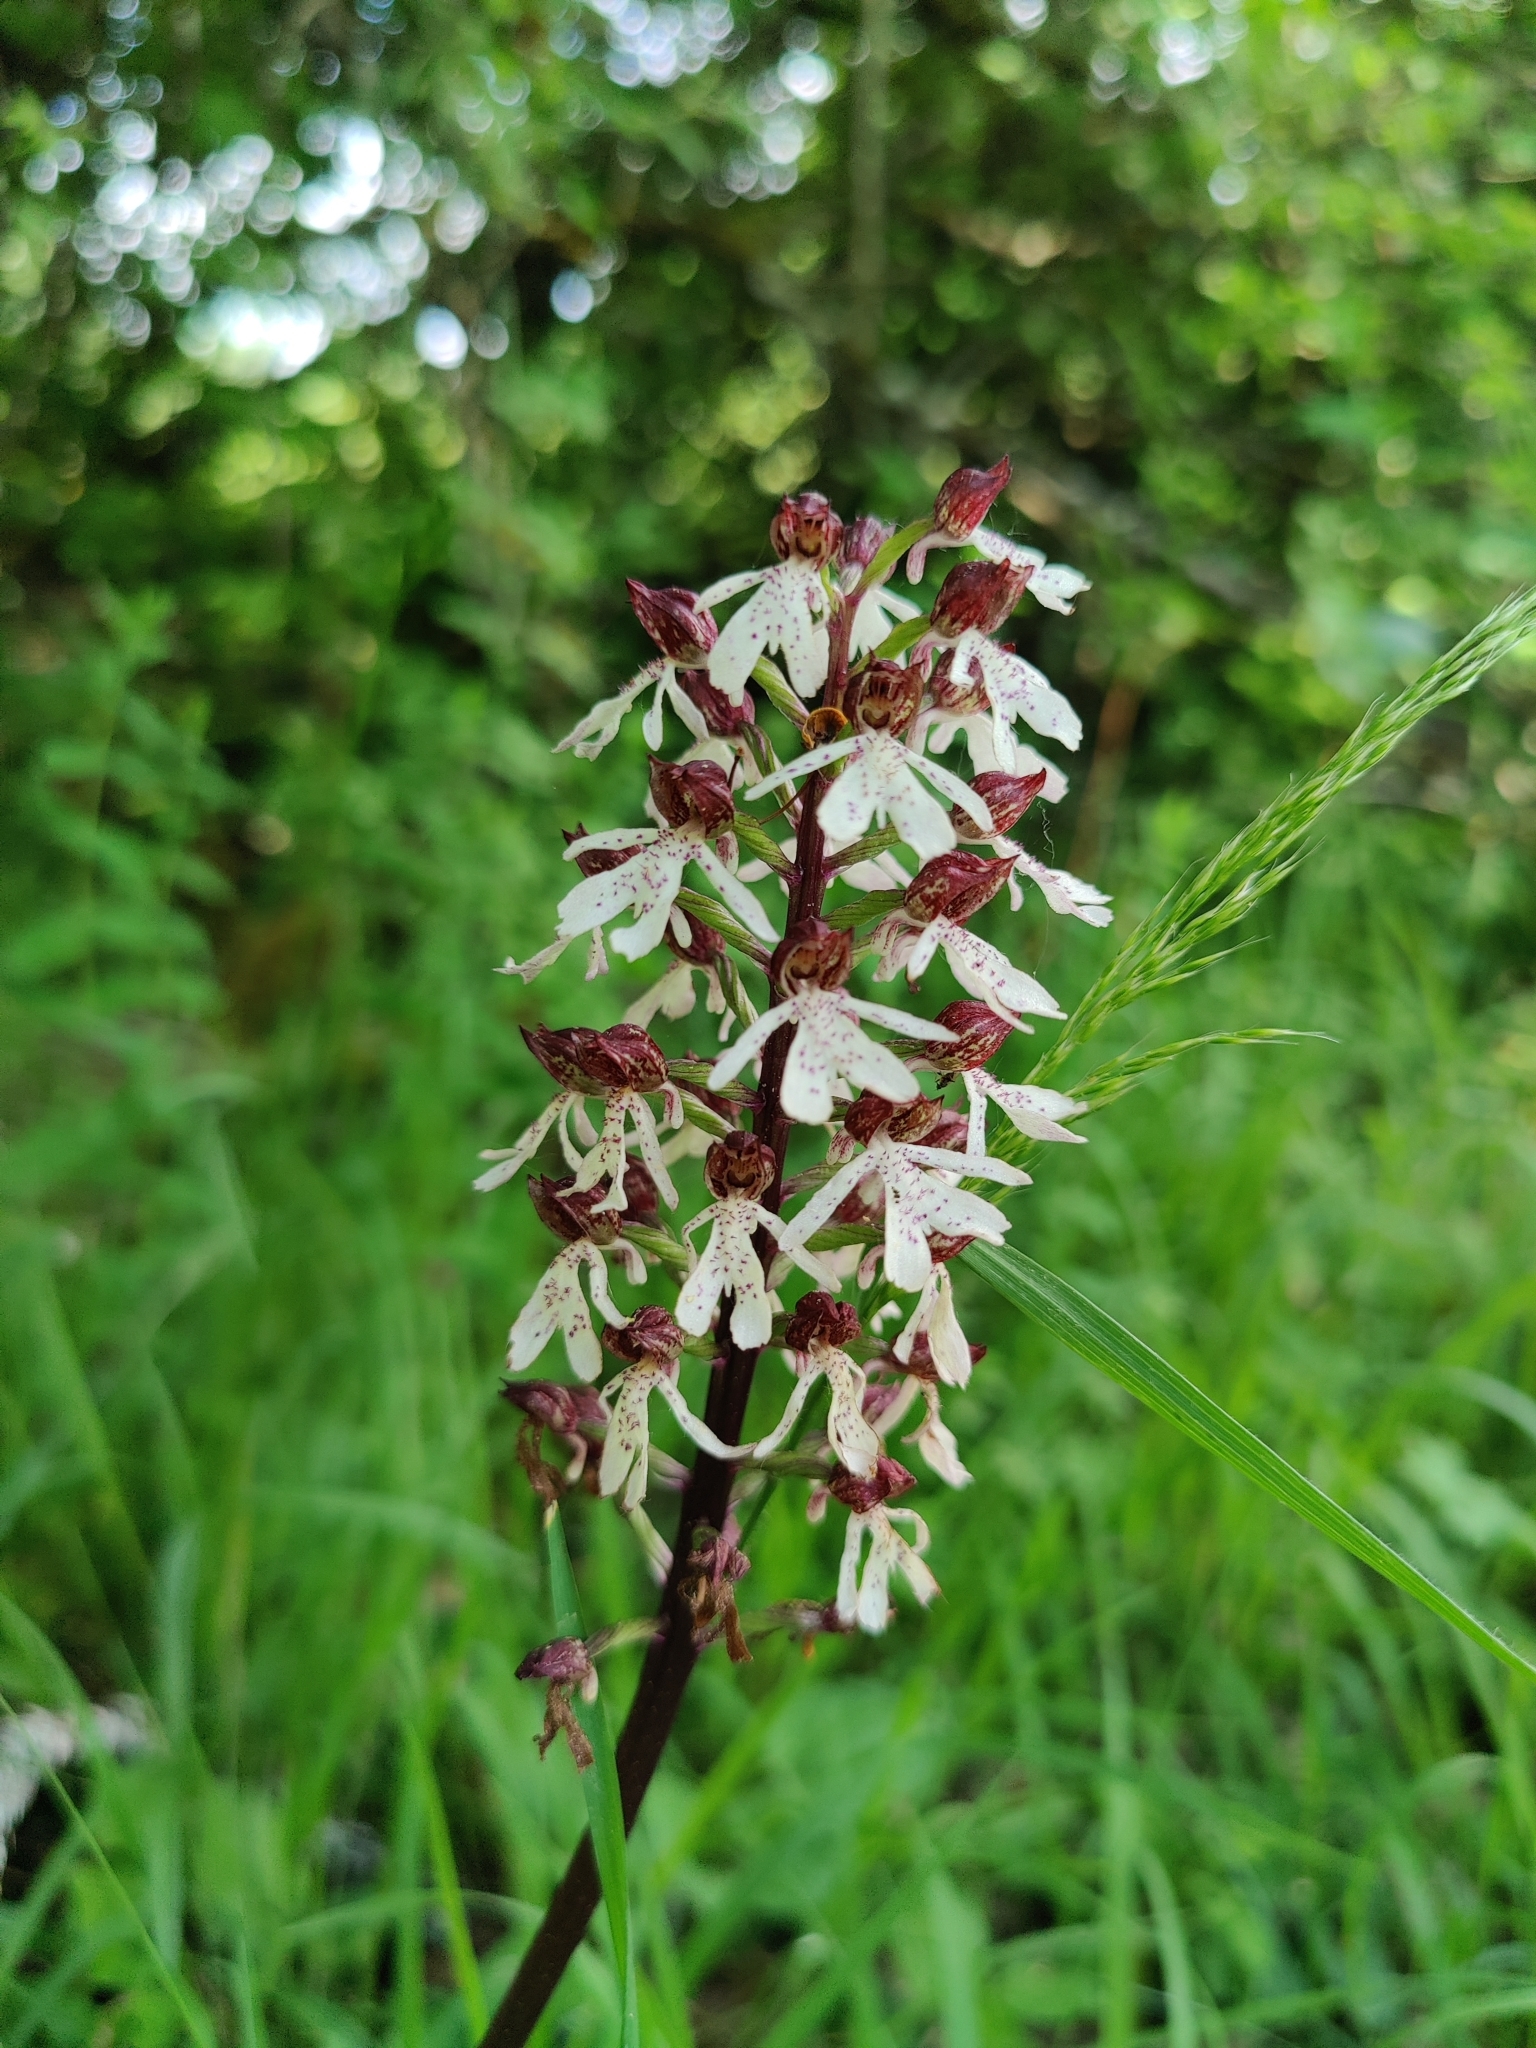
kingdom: Plantae
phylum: Tracheophyta
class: Liliopsida
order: Asparagales
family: Orchidaceae
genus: Orchis
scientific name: Orchis purpurea
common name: Lady orchid
